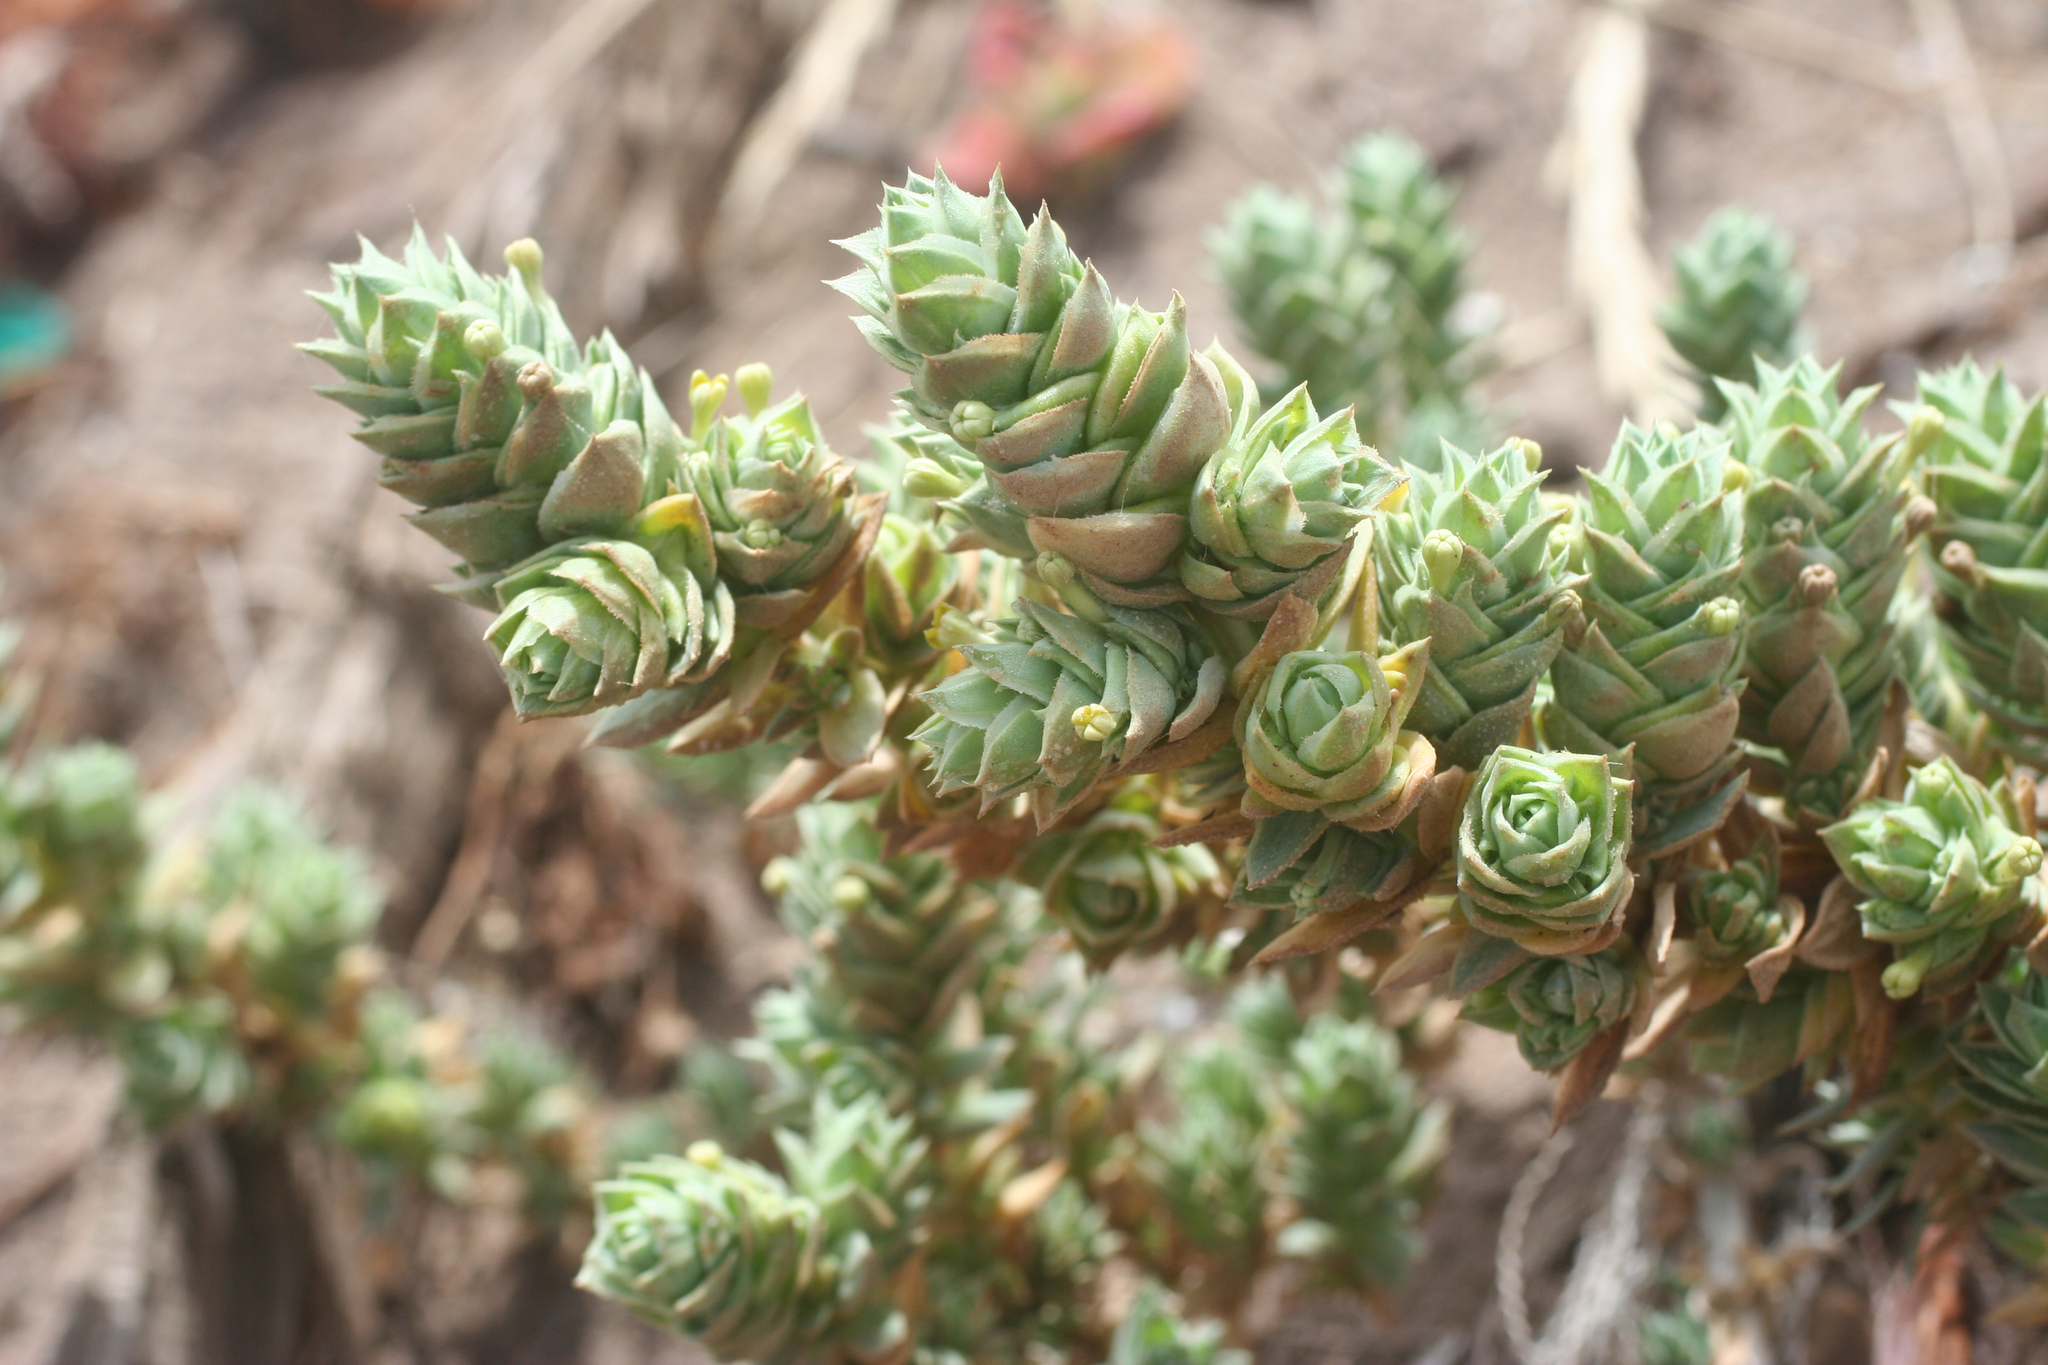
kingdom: Plantae
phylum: Tracheophyta
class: Magnoliopsida
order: Malpighiales
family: Euphorbiaceae
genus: Euphorbia
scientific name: Euphorbia paralias
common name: Sea spurge
